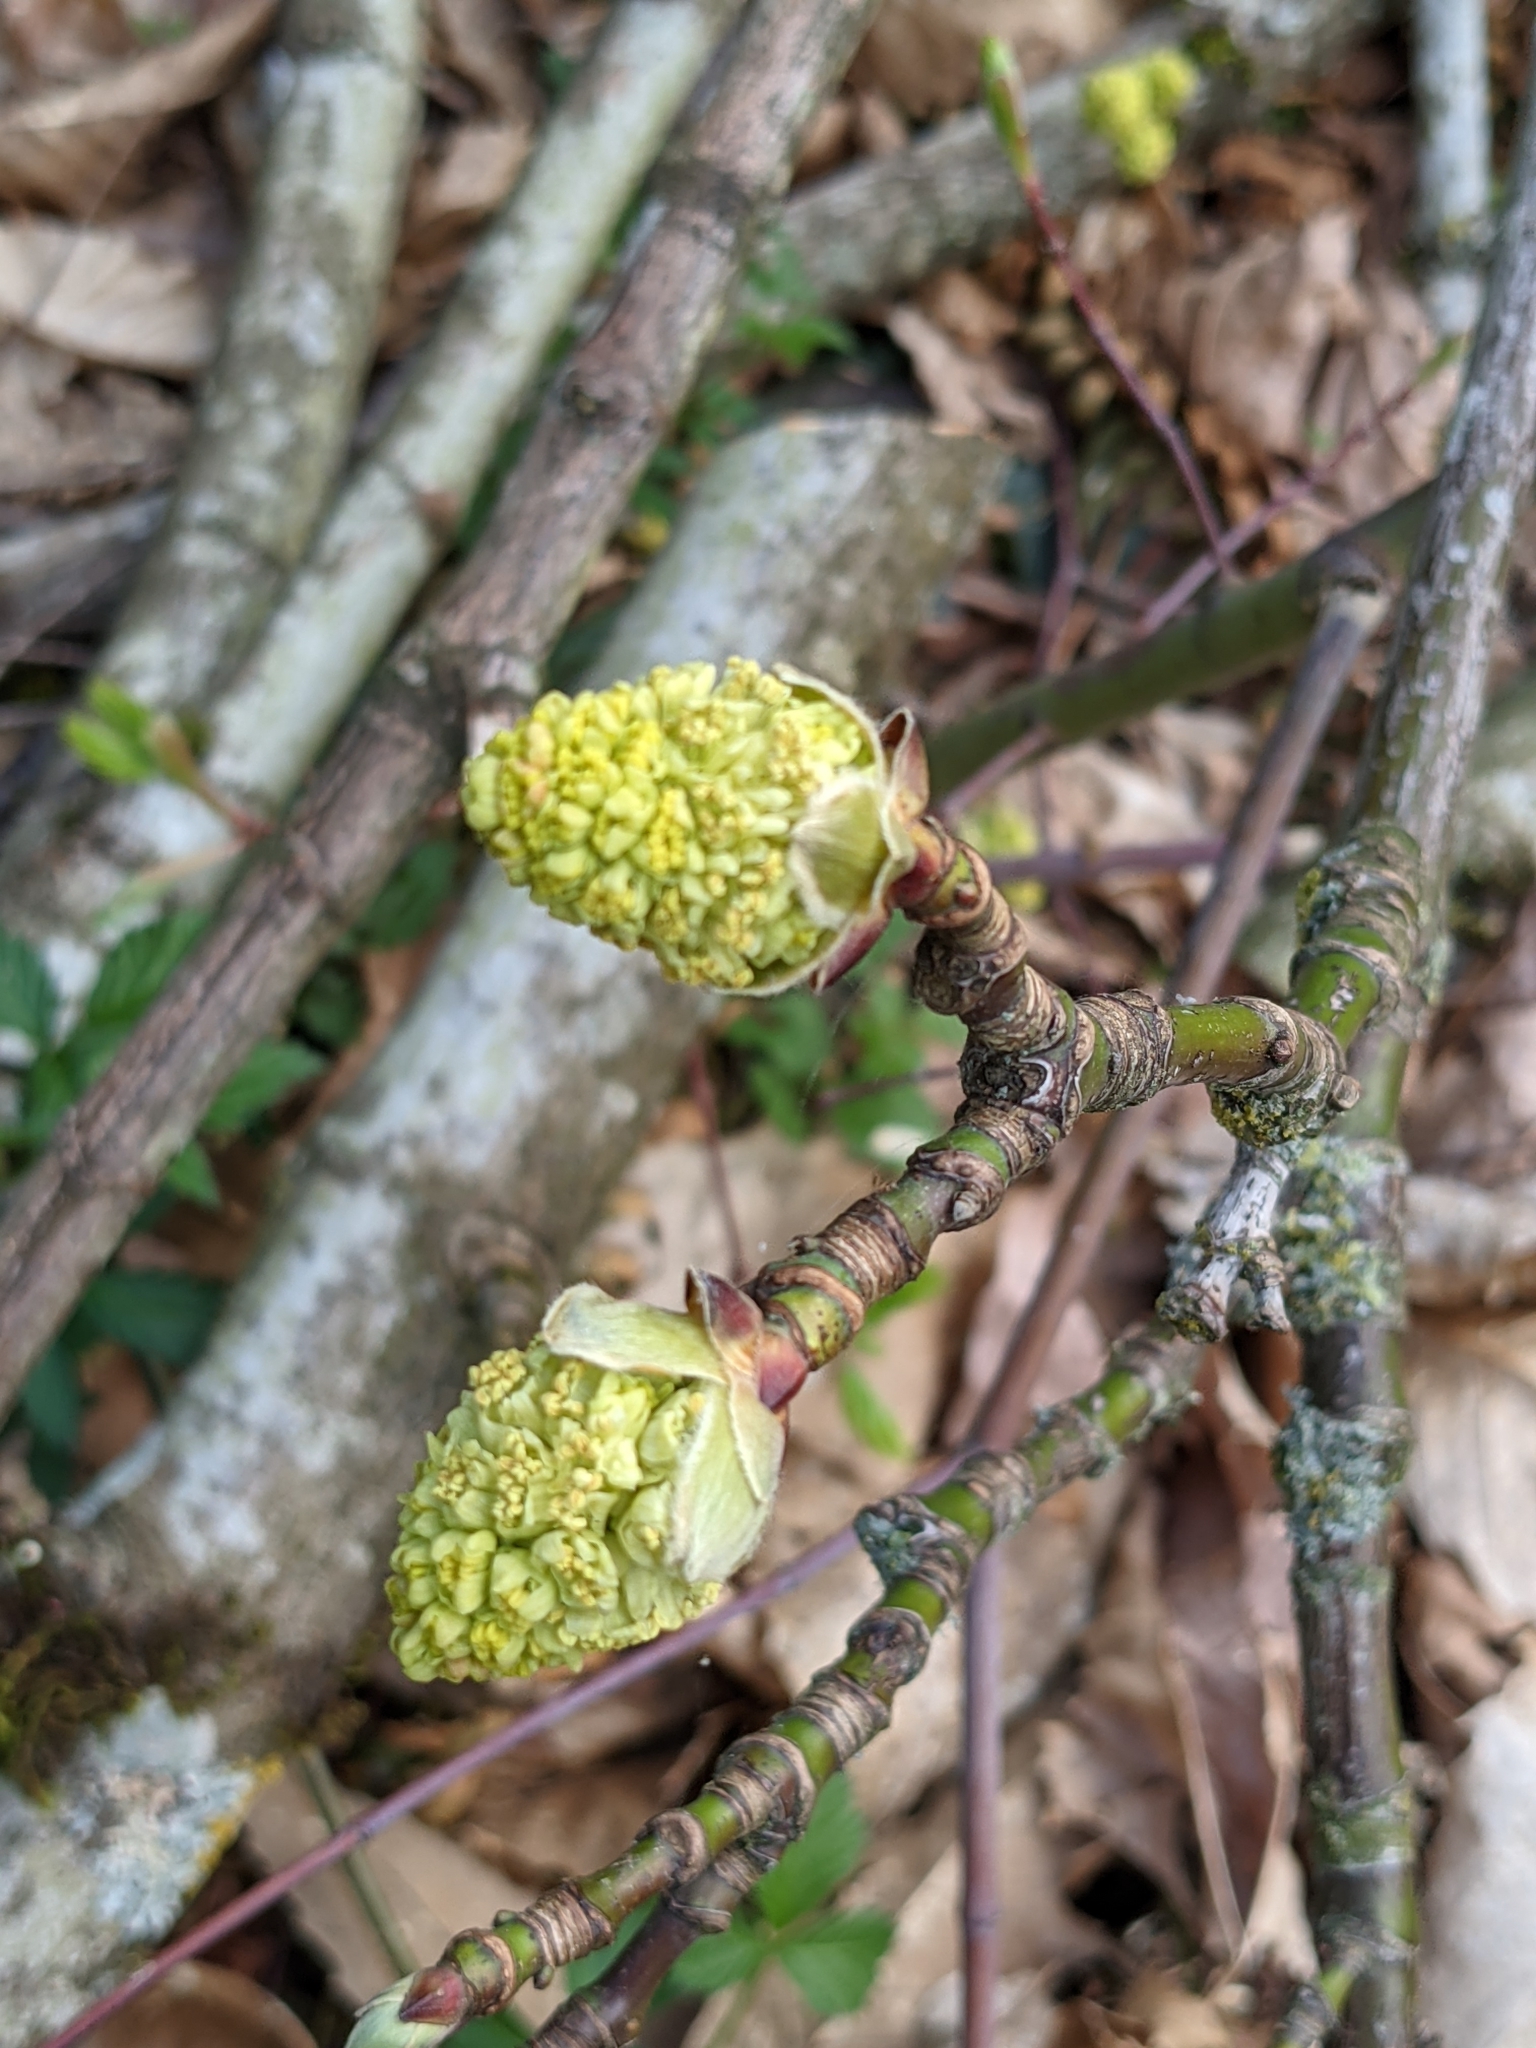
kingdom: Plantae
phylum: Tracheophyta
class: Magnoliopsida
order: Sapindales
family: Sapindaceae
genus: Acer
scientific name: Acer negundo
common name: Ashleaf maple
